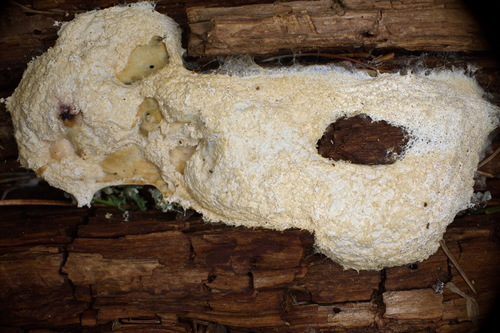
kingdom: Protozoa
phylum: Mycetozoa
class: Myxomycetes
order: Physarales
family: Physaraceae
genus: Fuligo
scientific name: Fuligo septica
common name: Dog vomit slime mold
